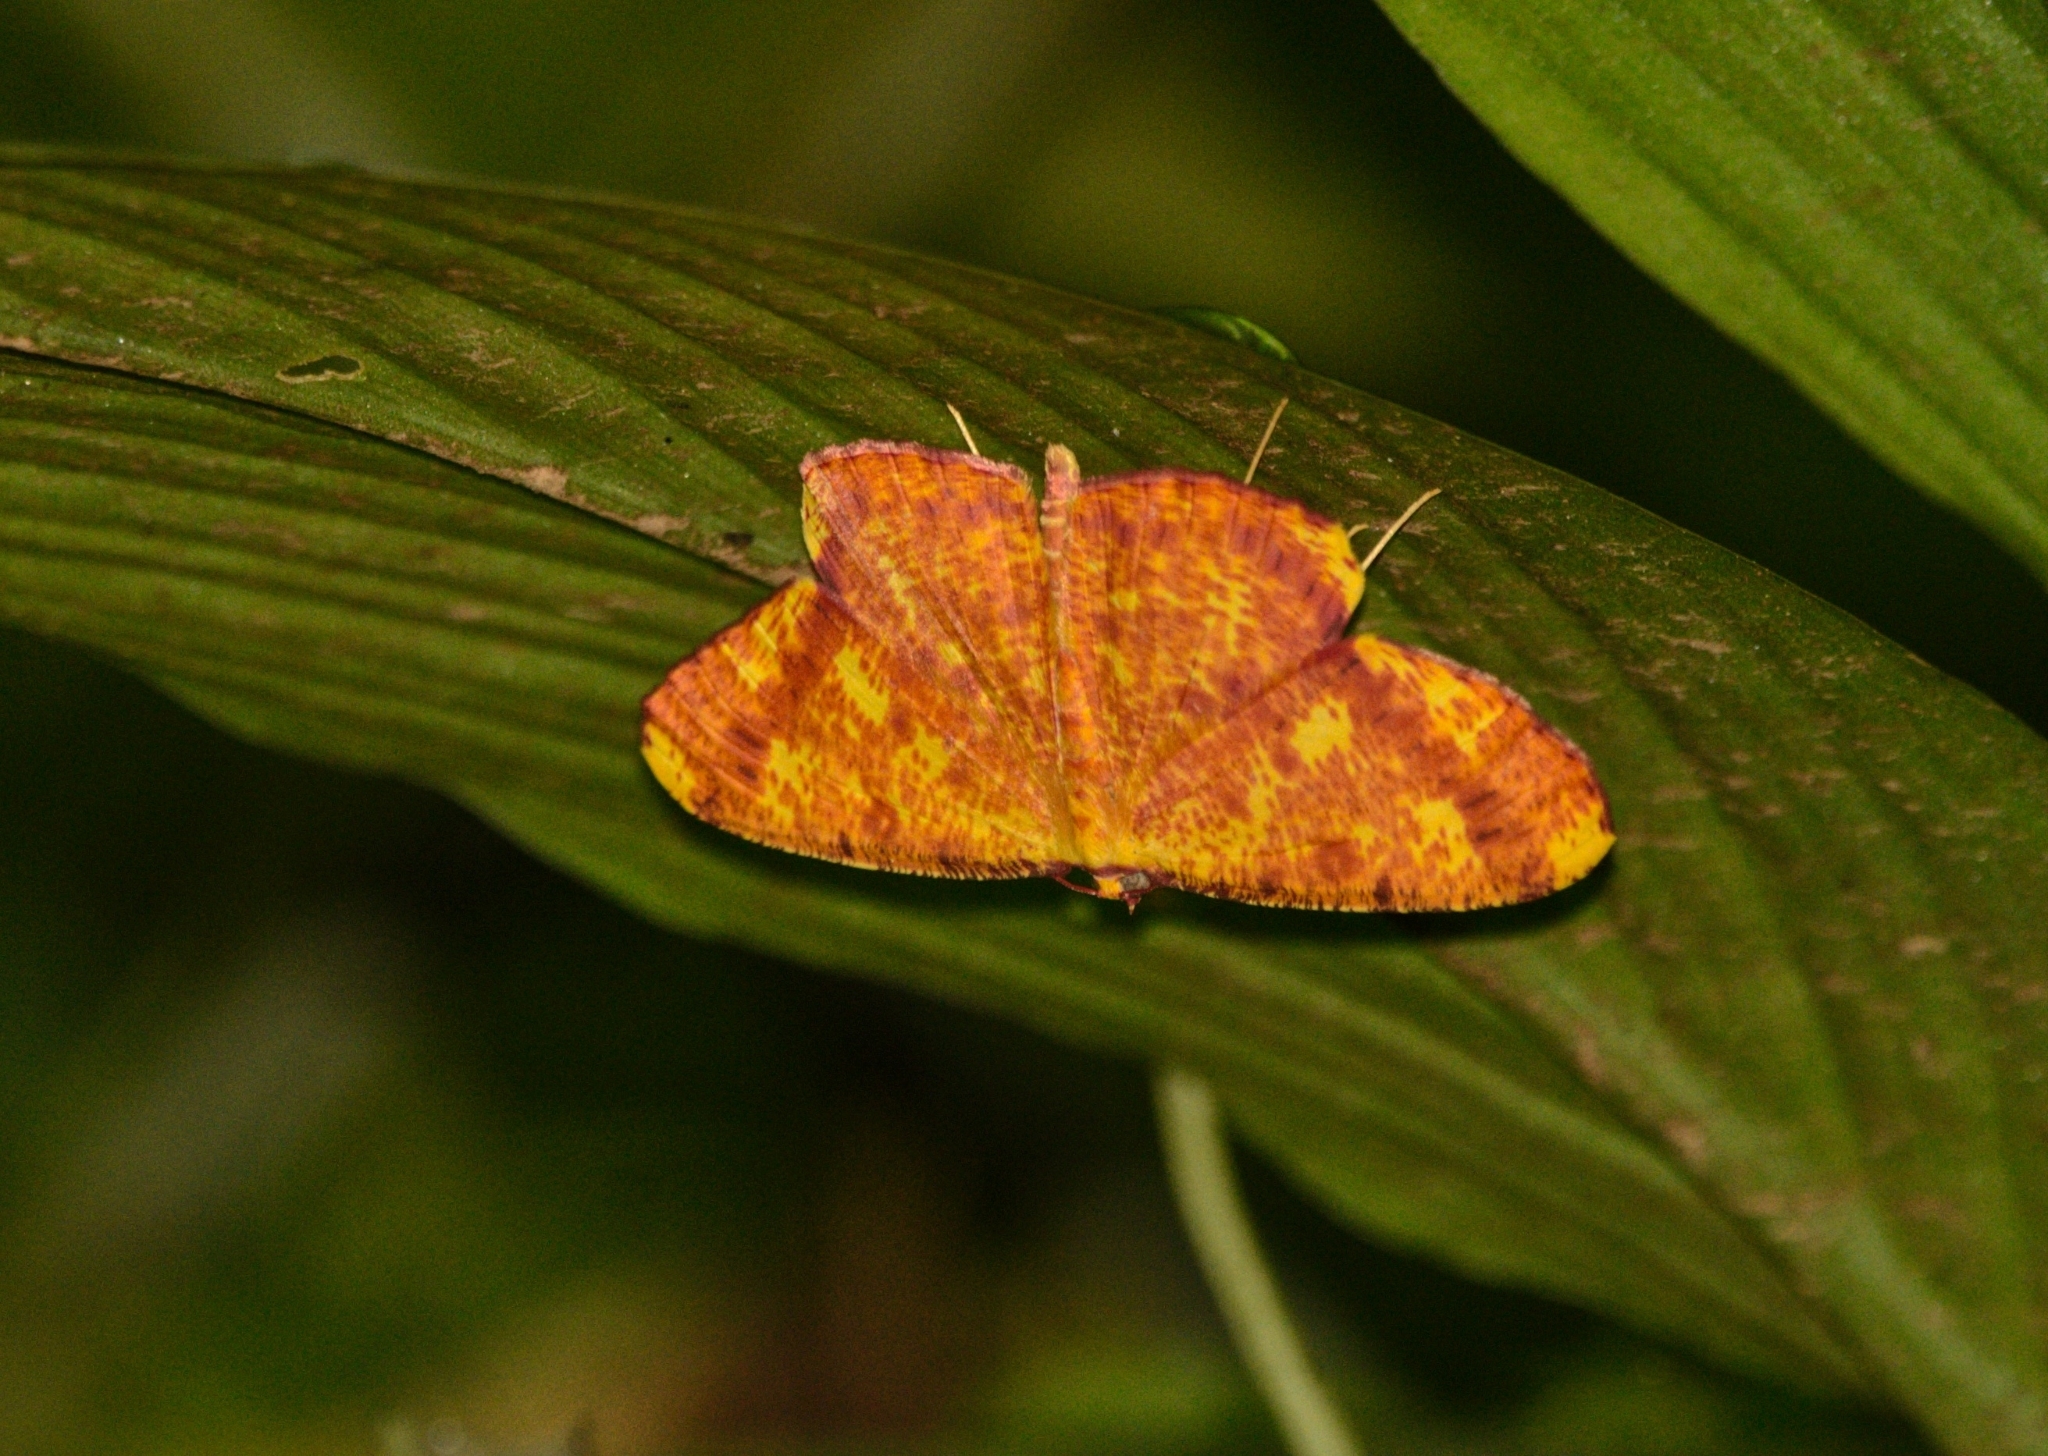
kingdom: Animalia
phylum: Arthropoda
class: Insecta
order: Lepidoptera
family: Geometridae
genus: Eumelea
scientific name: Eumelea ludovicata
